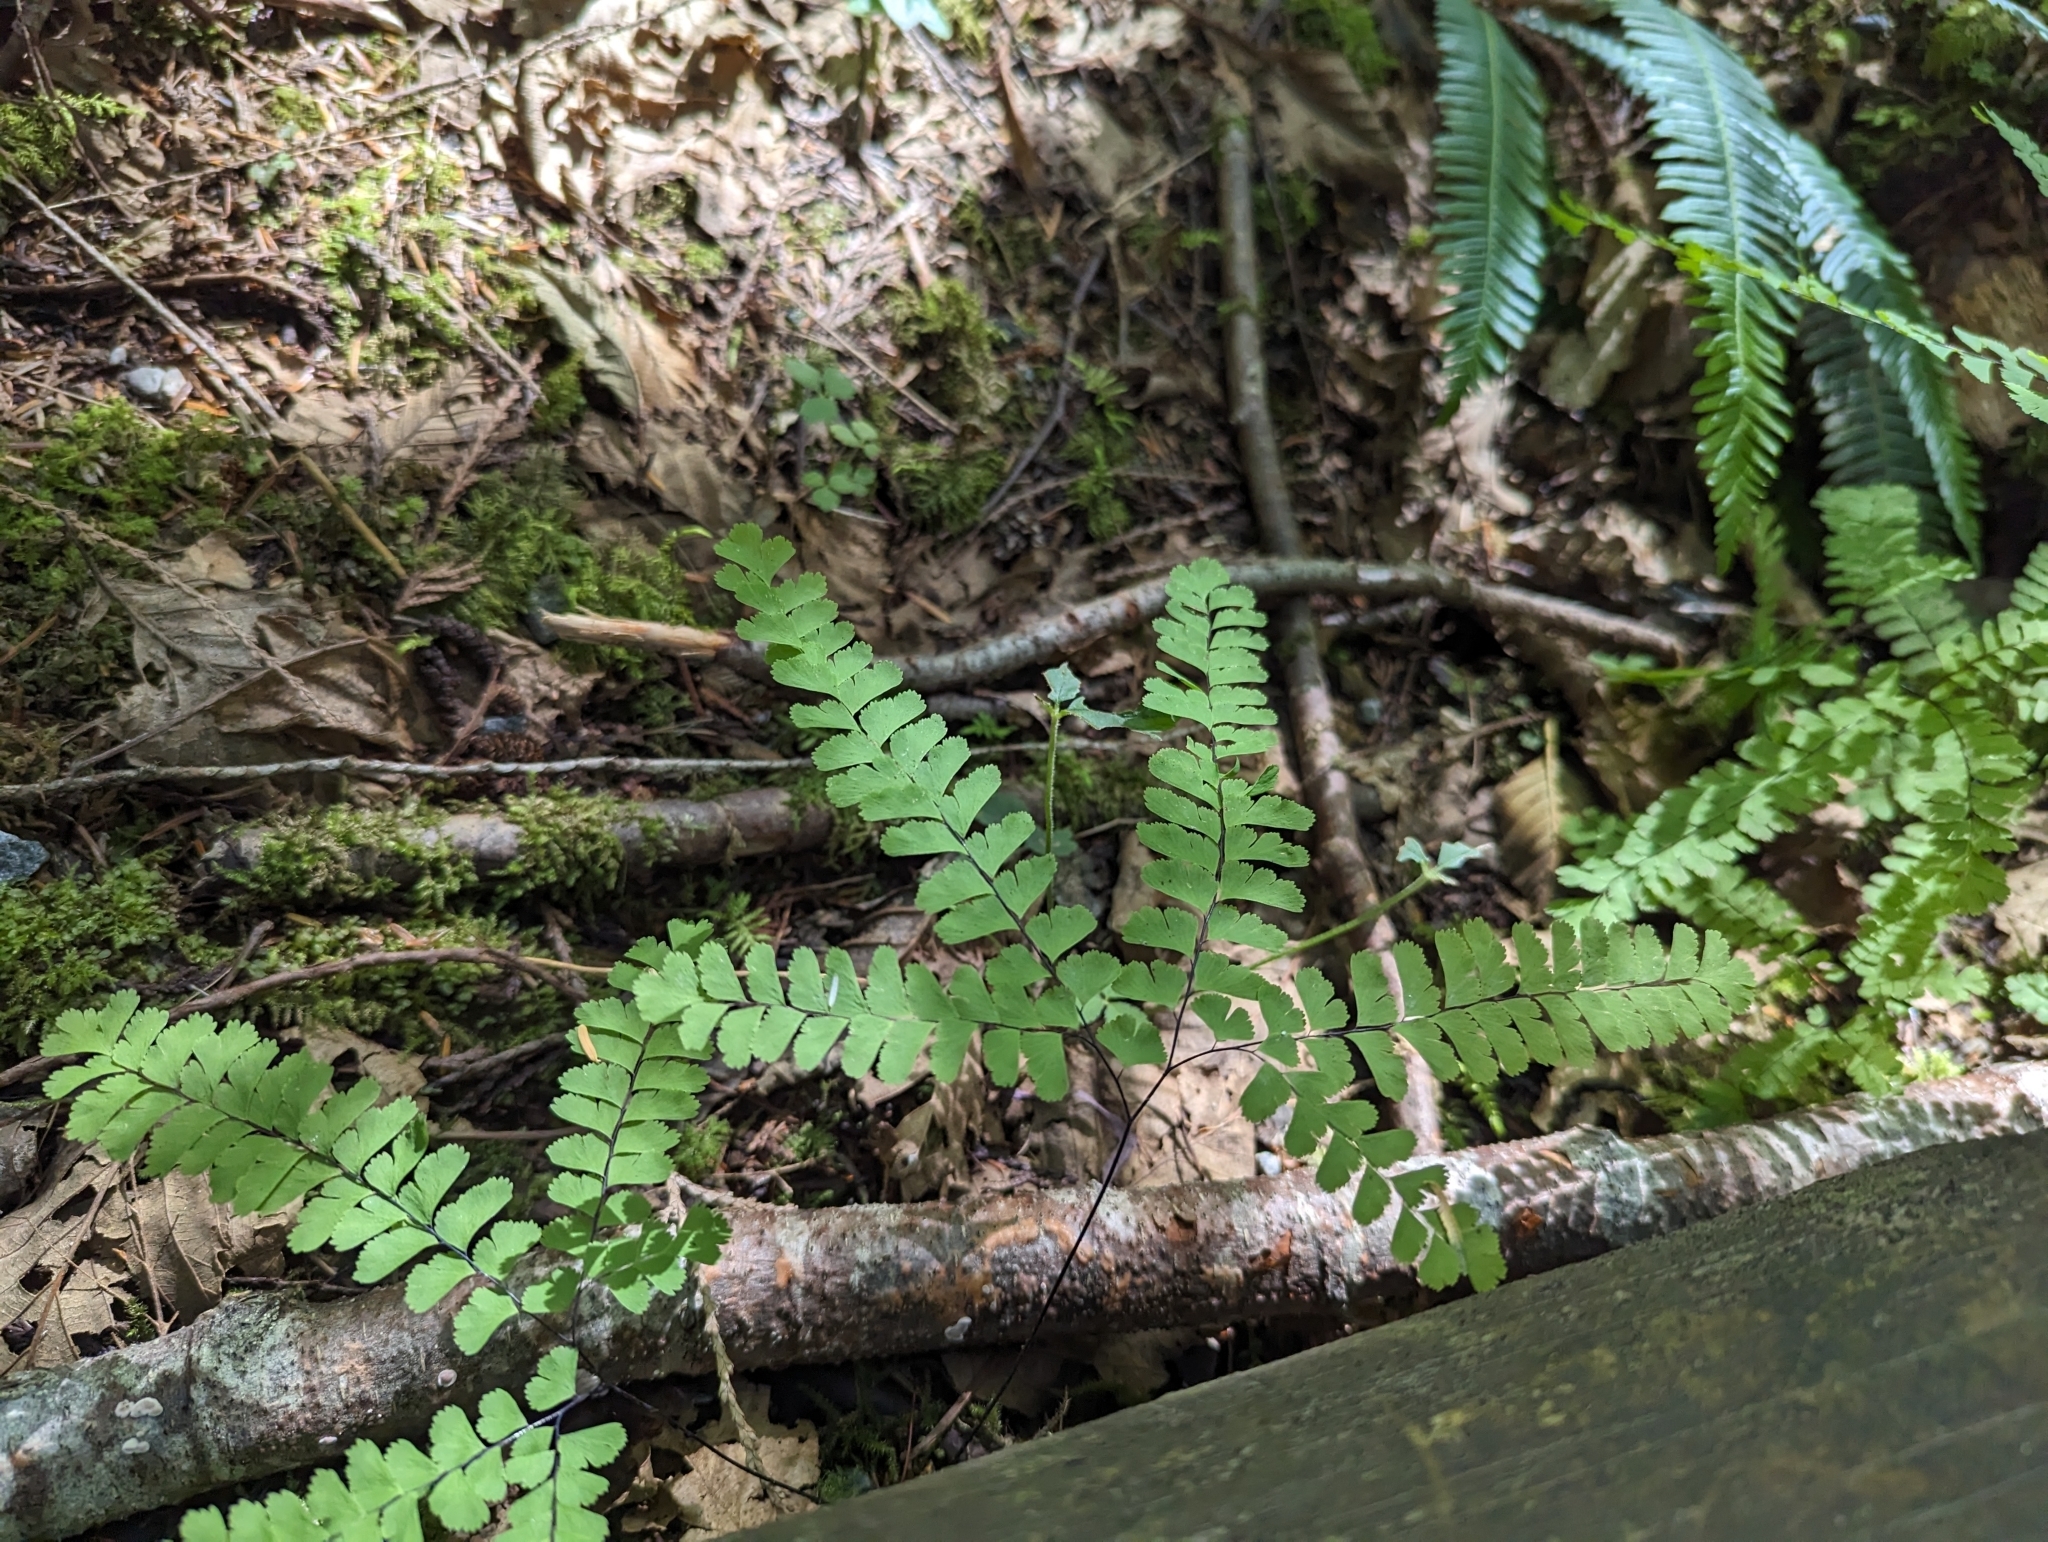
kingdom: Plantae
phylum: Tracheophyta
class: Polypodiopsida
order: Polypodiales
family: Pteridaceae
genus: Adiantum
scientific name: Adiantum aleuticum
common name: Aleutian maidenhair fern
